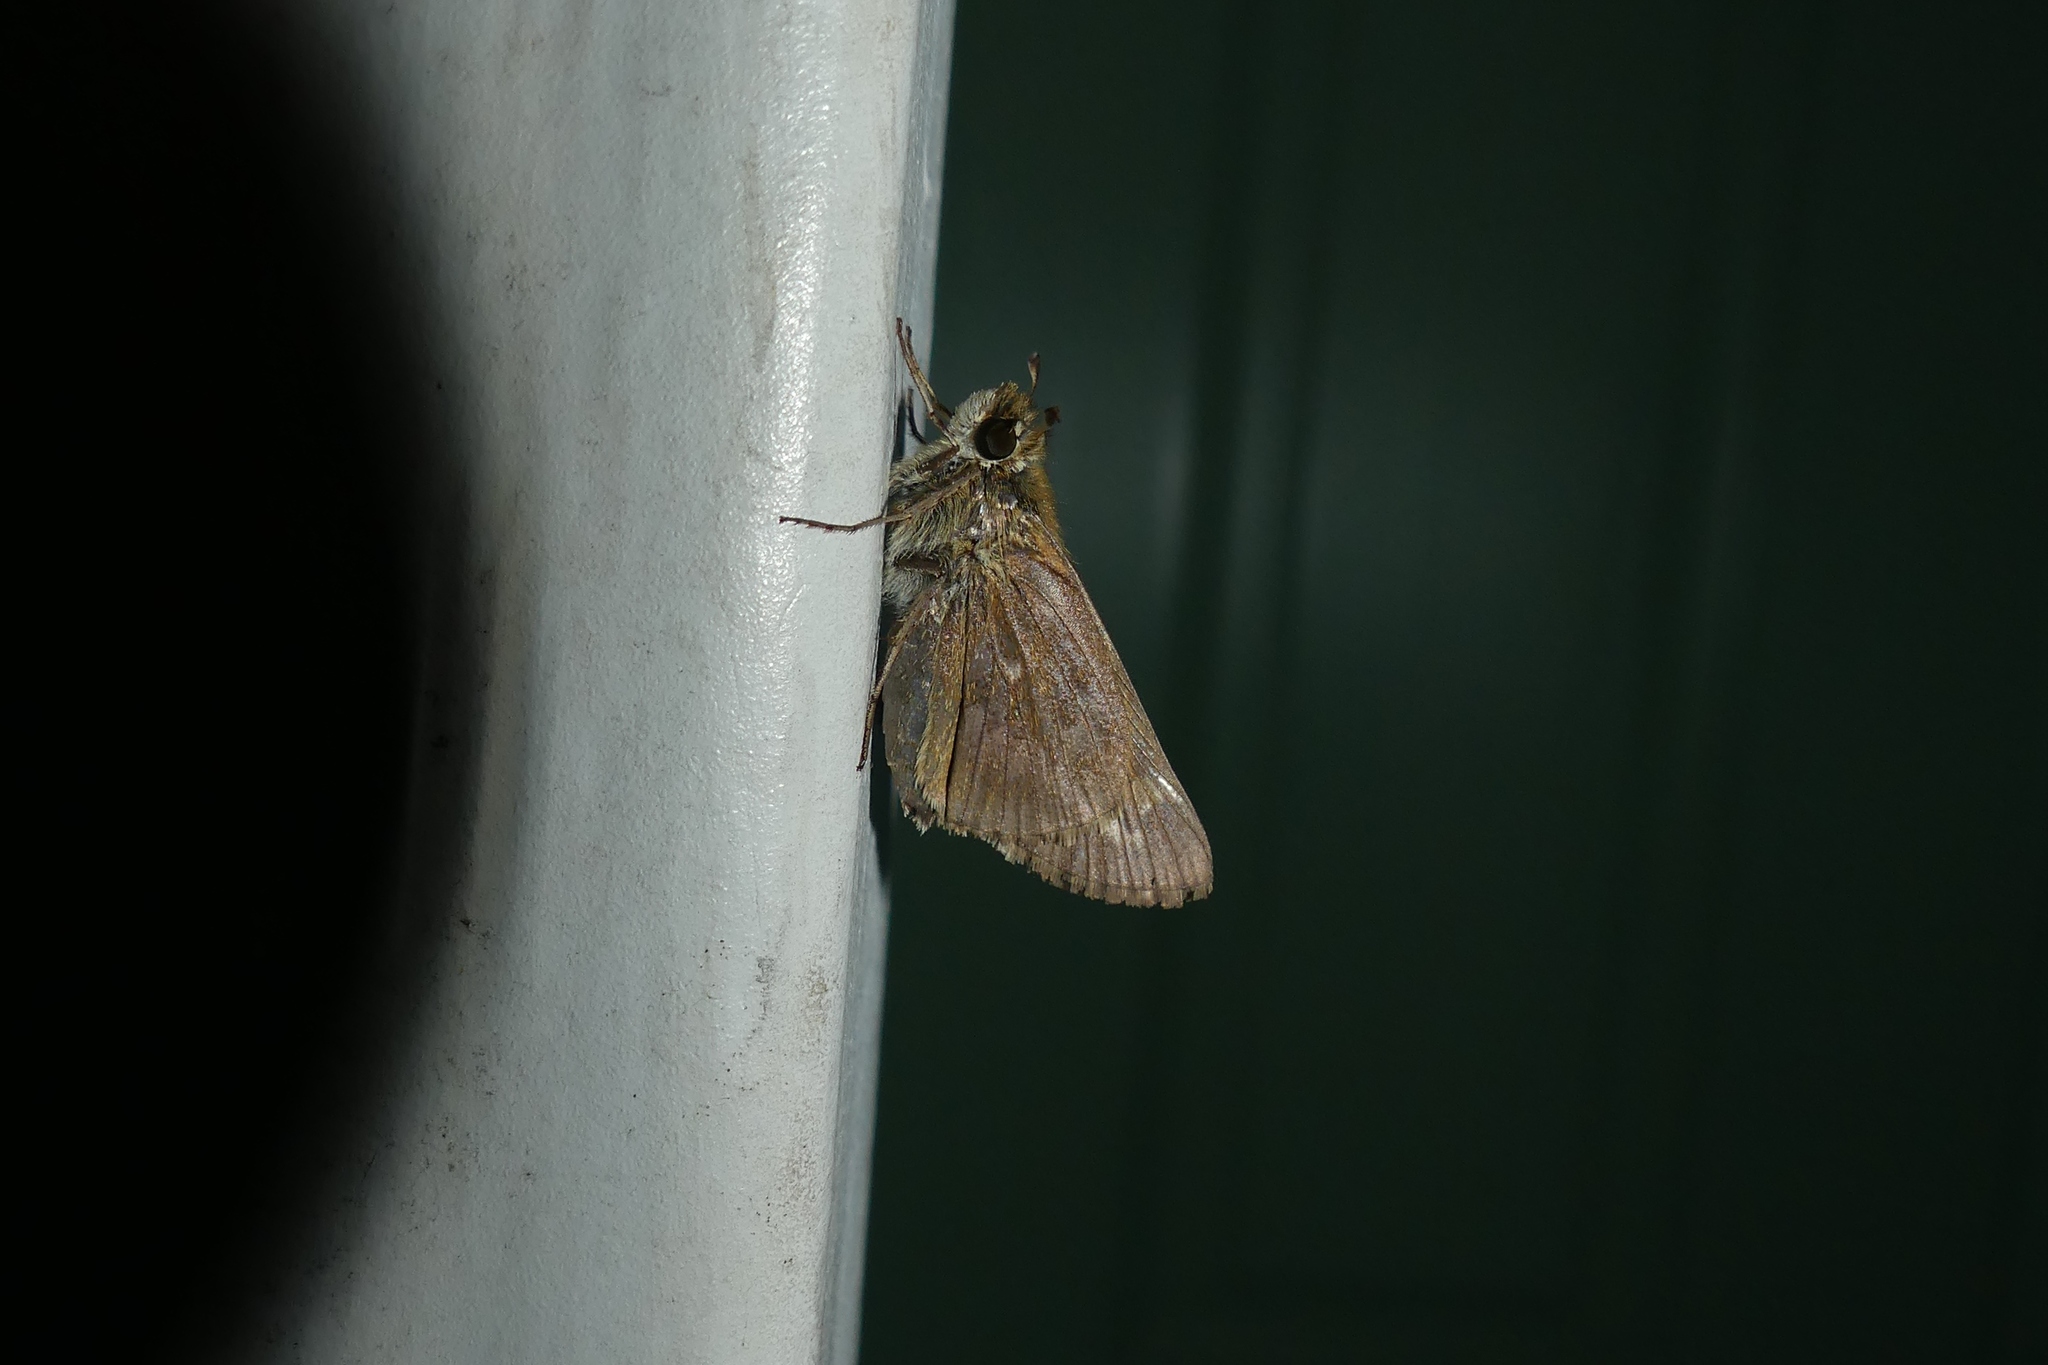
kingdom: Animalia
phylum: Arthropoda
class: Insecta
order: Lepidoptera
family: Hesperiidae
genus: Atalopedes
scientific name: Atalopedes
